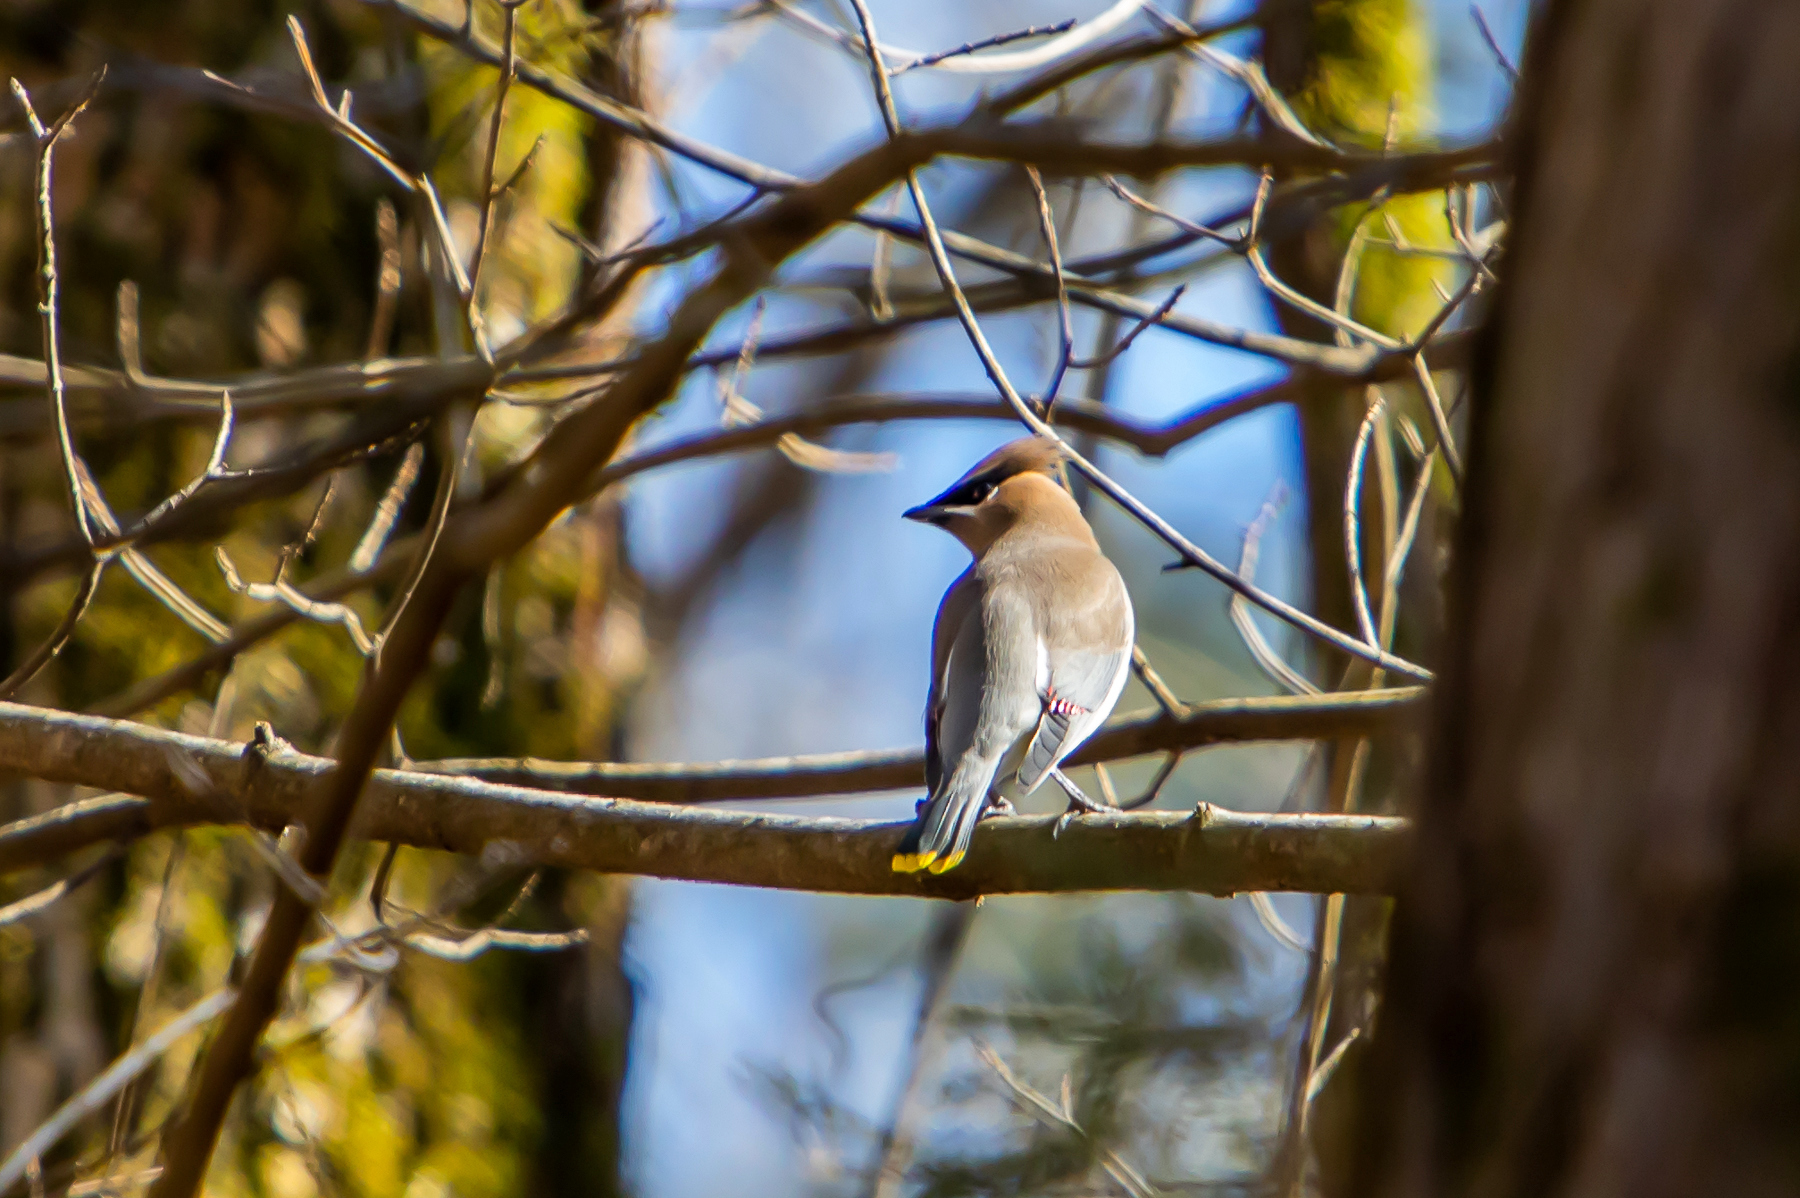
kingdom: Animalia
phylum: Chordata
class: Aves
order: Passeriformes
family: Bombycillidae
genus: Bombycilla
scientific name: Bombycilla cedrorum
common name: Cedar waxwing
